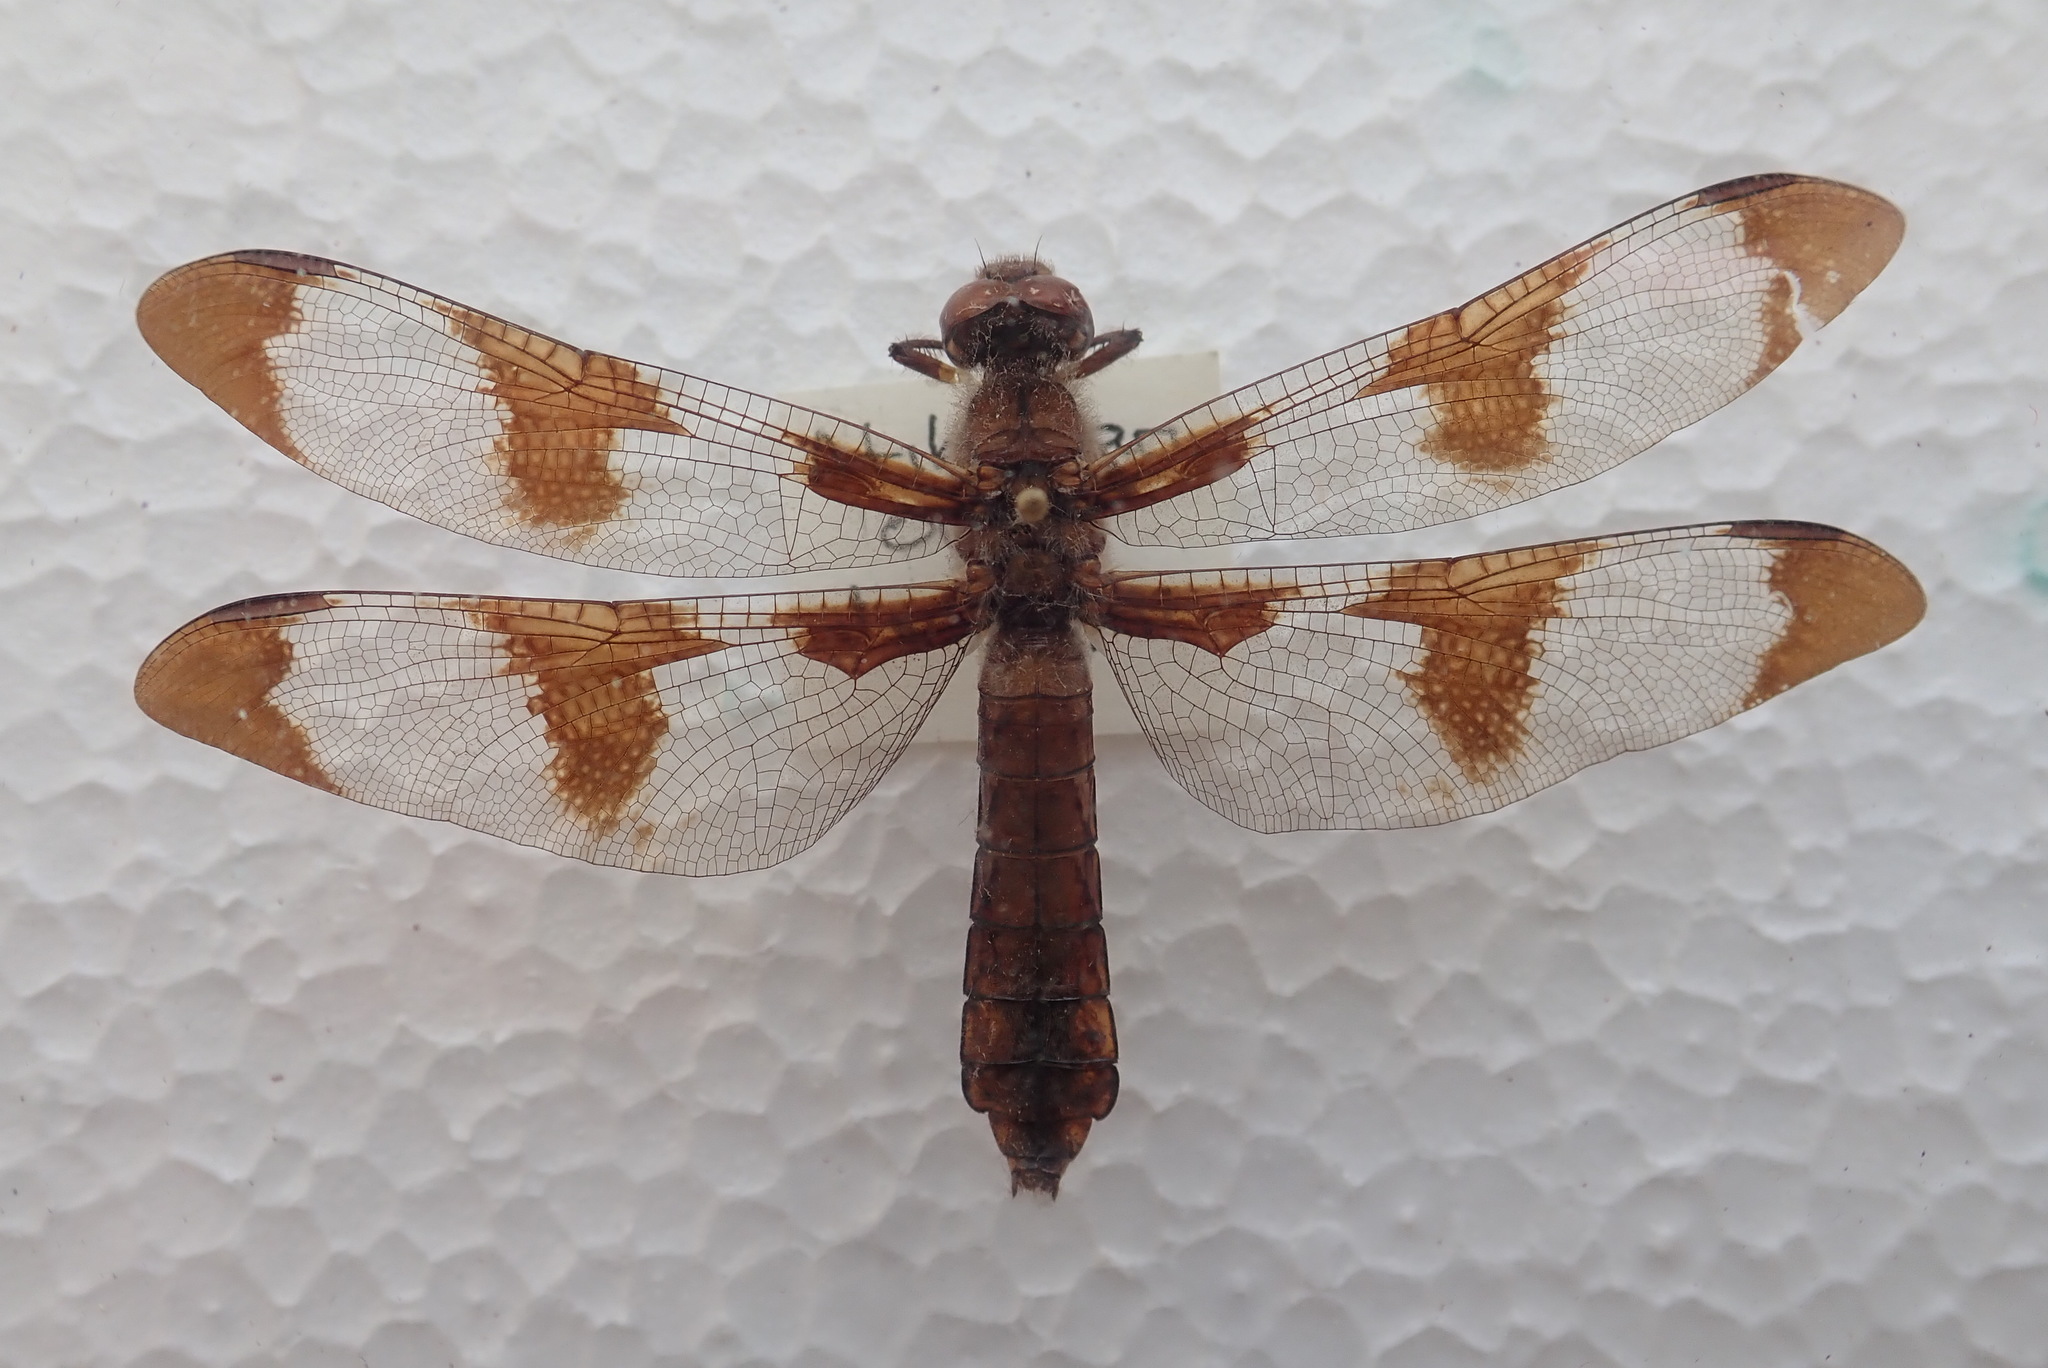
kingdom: Animalia
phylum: Arthropoda
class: Insecta
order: Odonata
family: Libellulidae
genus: Plathemis
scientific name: Plathemis lydia
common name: Common whitetail
